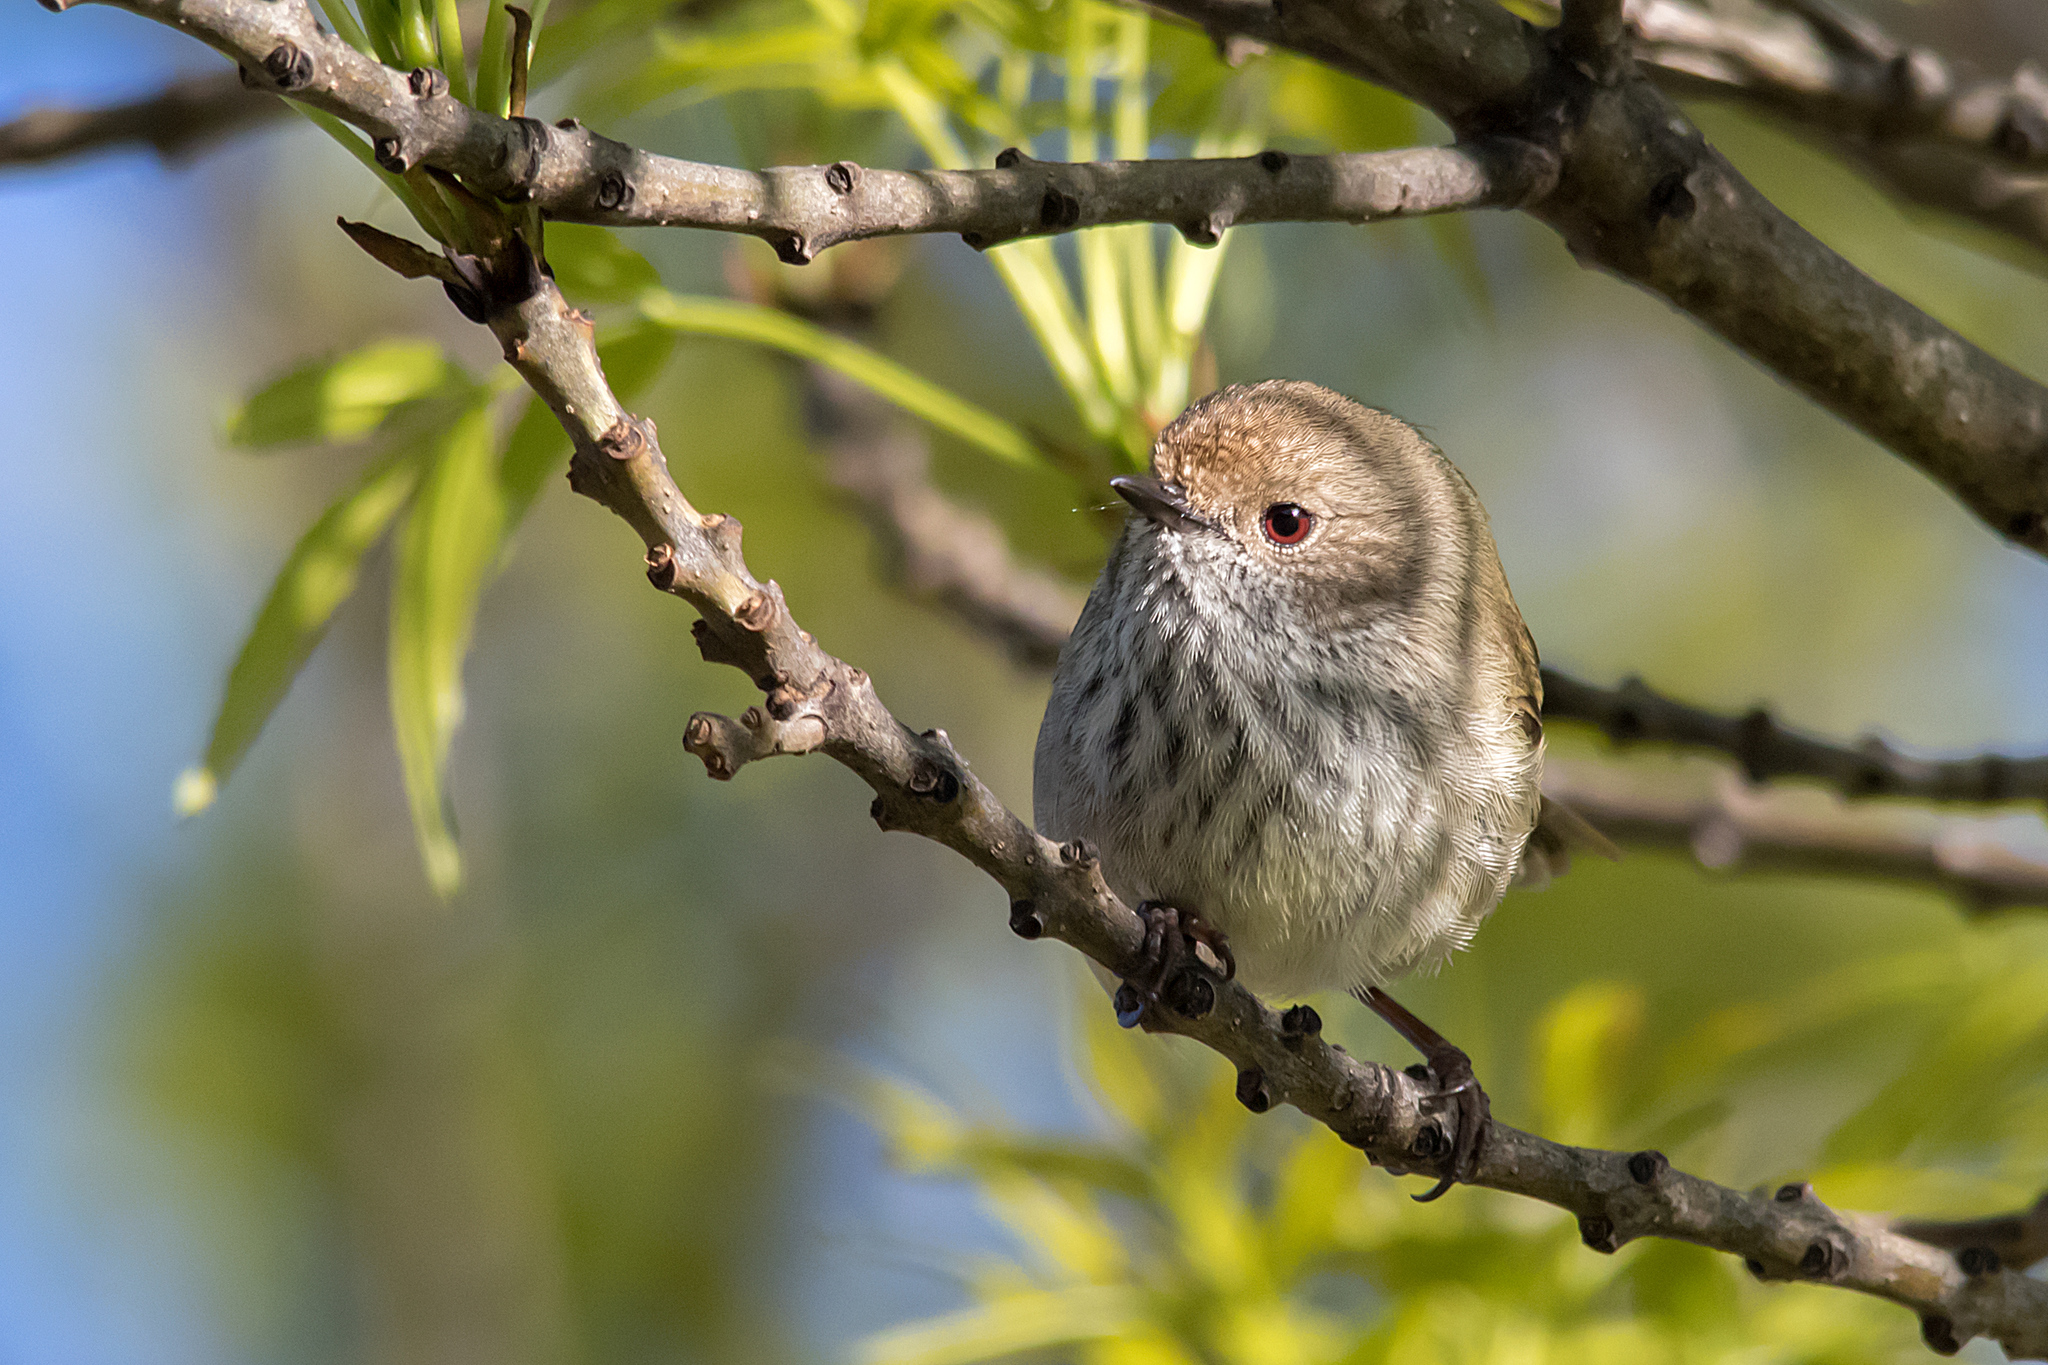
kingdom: Animalia
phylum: Chordata
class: Aves
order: Passeriformes
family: Acanthizidae
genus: Acanthiza
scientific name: Acanthiza pusilla
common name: Brown thornbill
